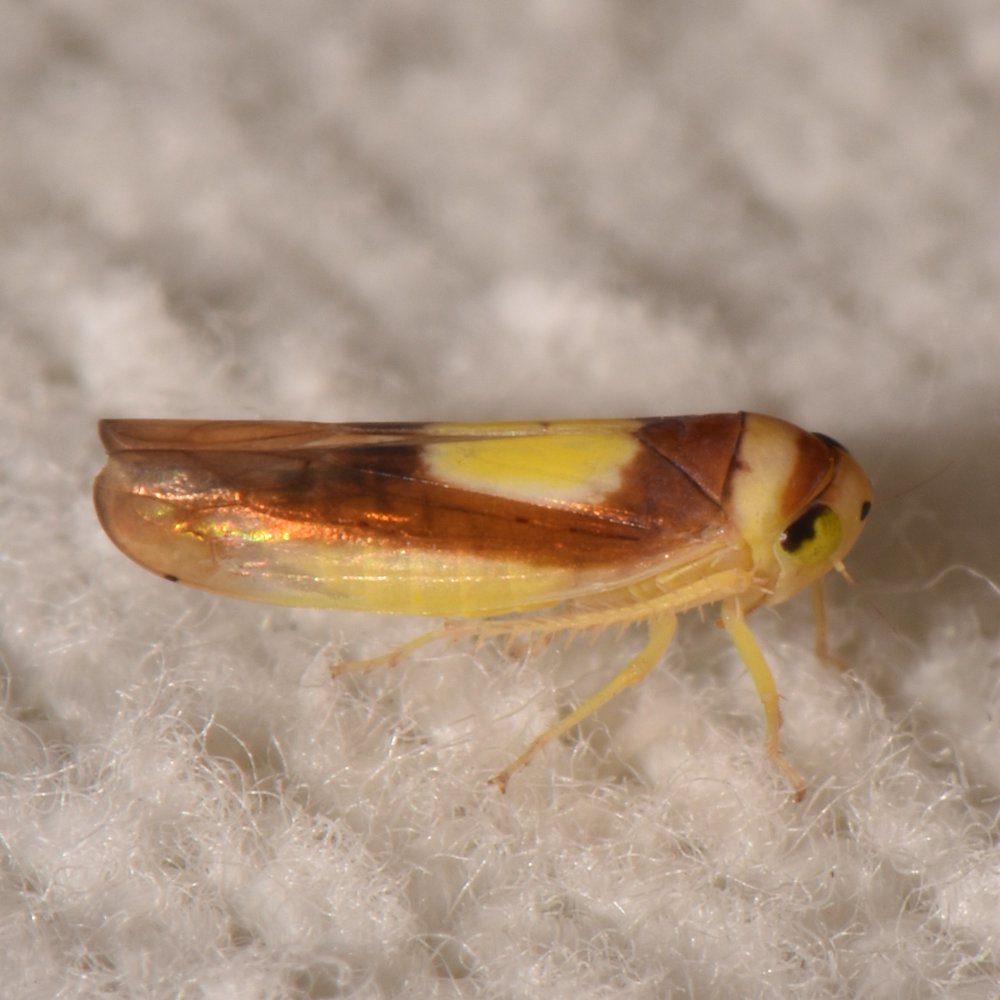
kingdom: Animalia
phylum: Arthropoda
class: Insecta
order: Hemiptera
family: Cicadellidae
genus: Colladonus
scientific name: Colladonus clitellarius
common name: The saddleback leafhopper
